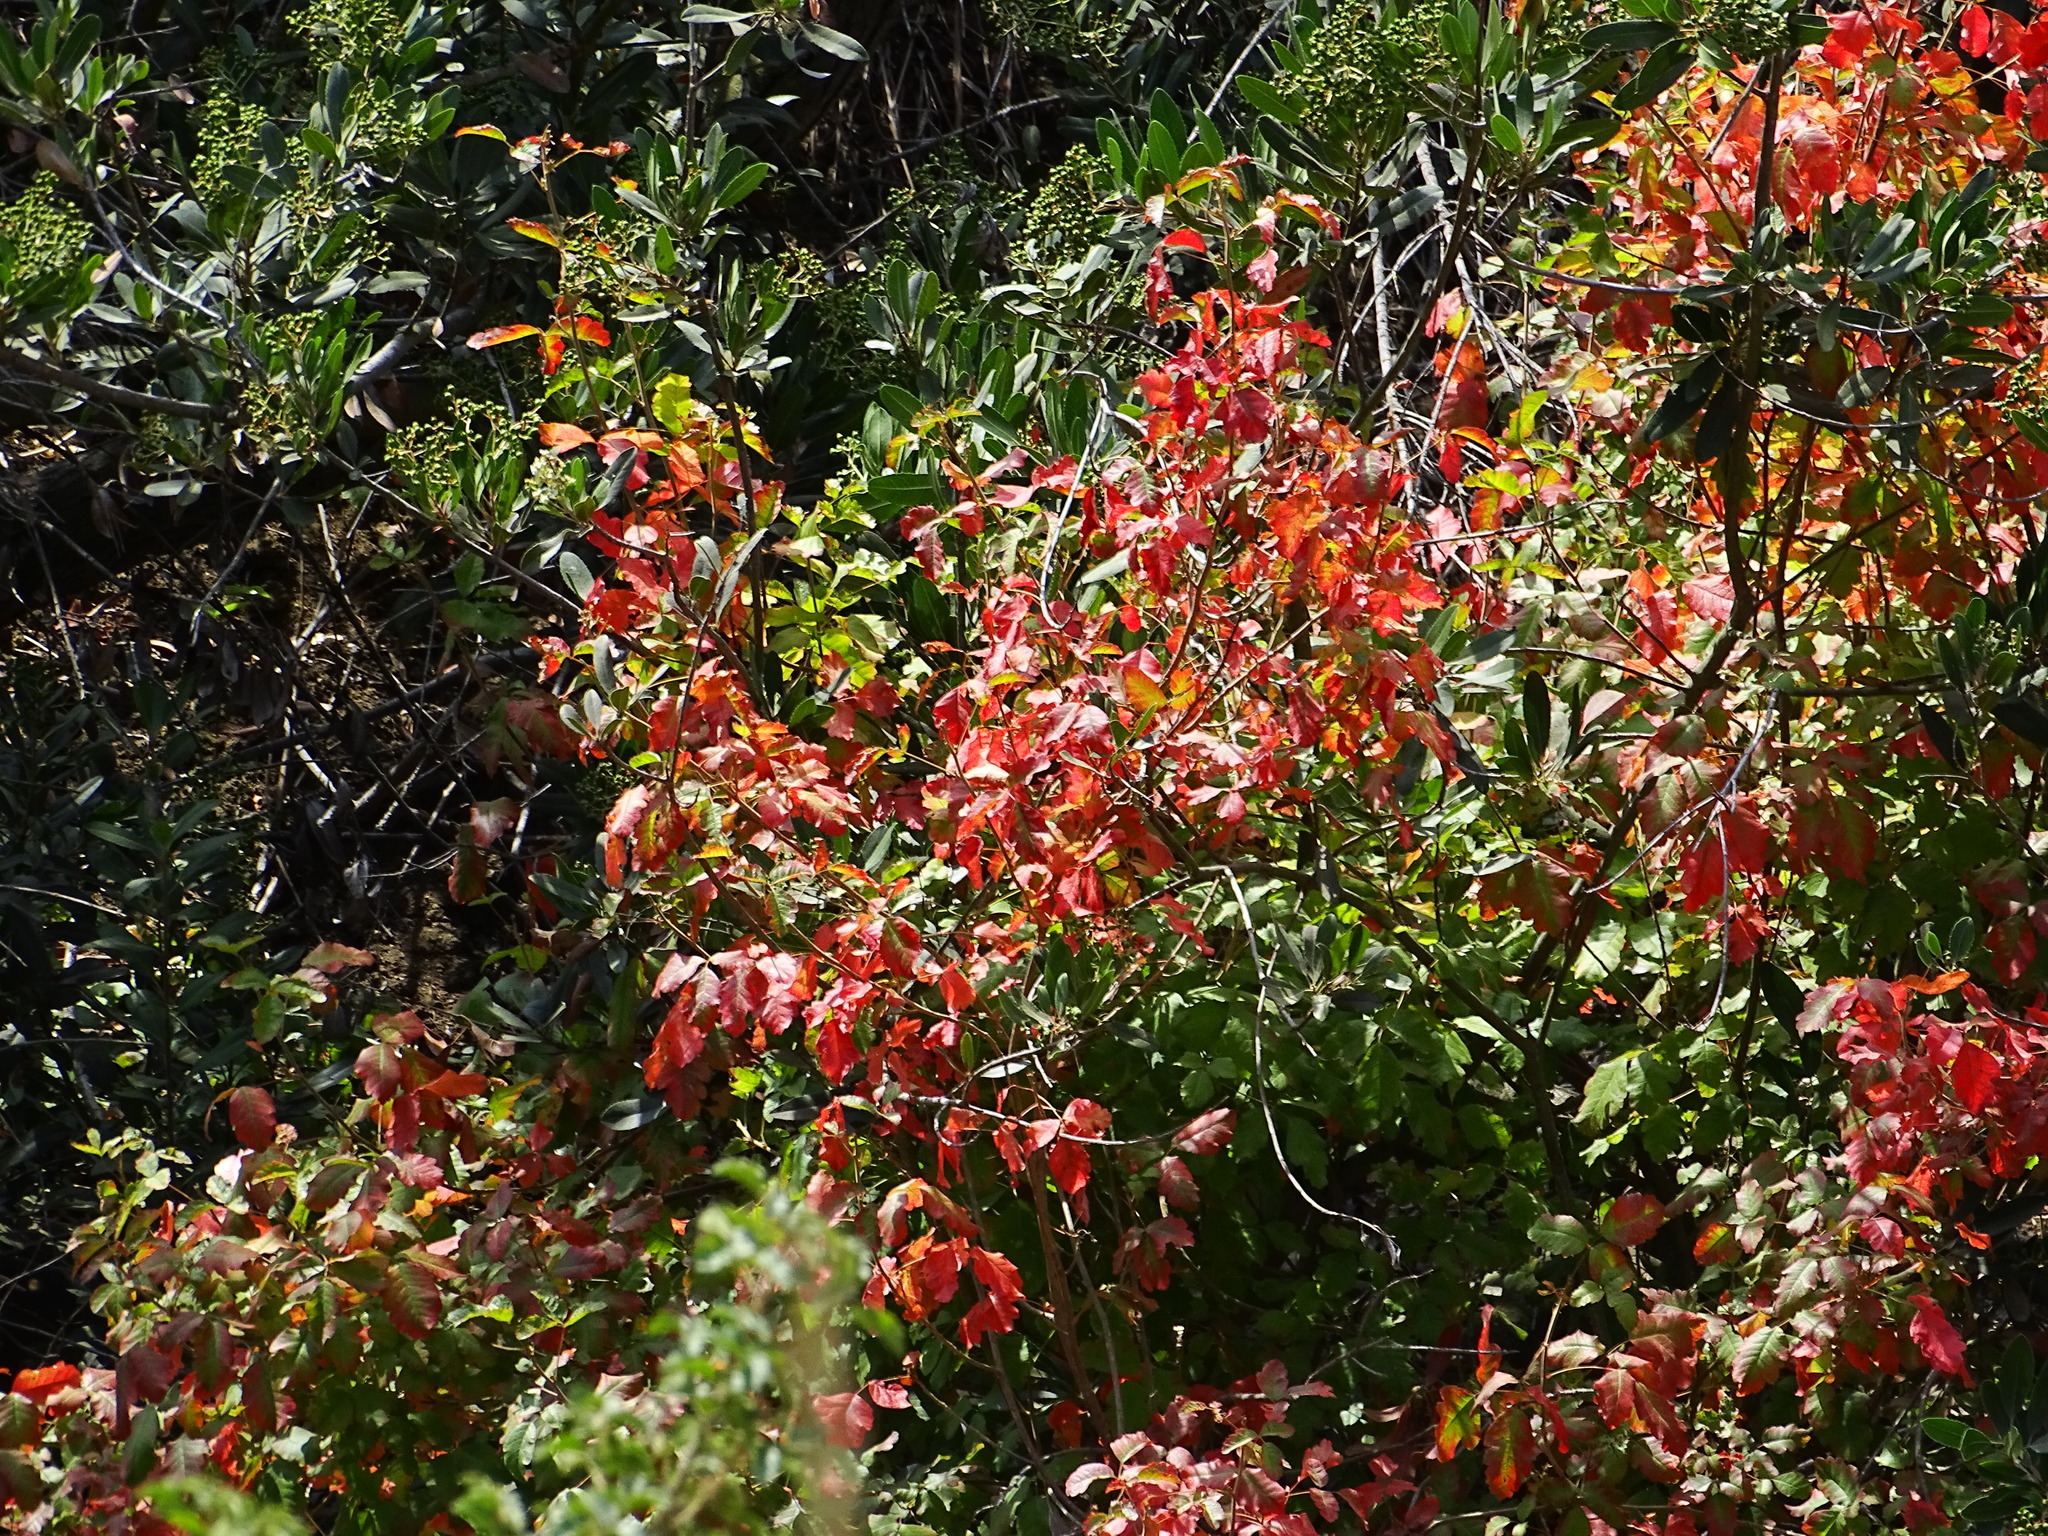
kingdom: Plantae
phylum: Tracheophyta
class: Magnoliopsida
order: Sapindales
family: Anacardiaceae
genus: Toxicodendron
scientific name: Toxicodendron diversilobum
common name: Pacific poison-oak
